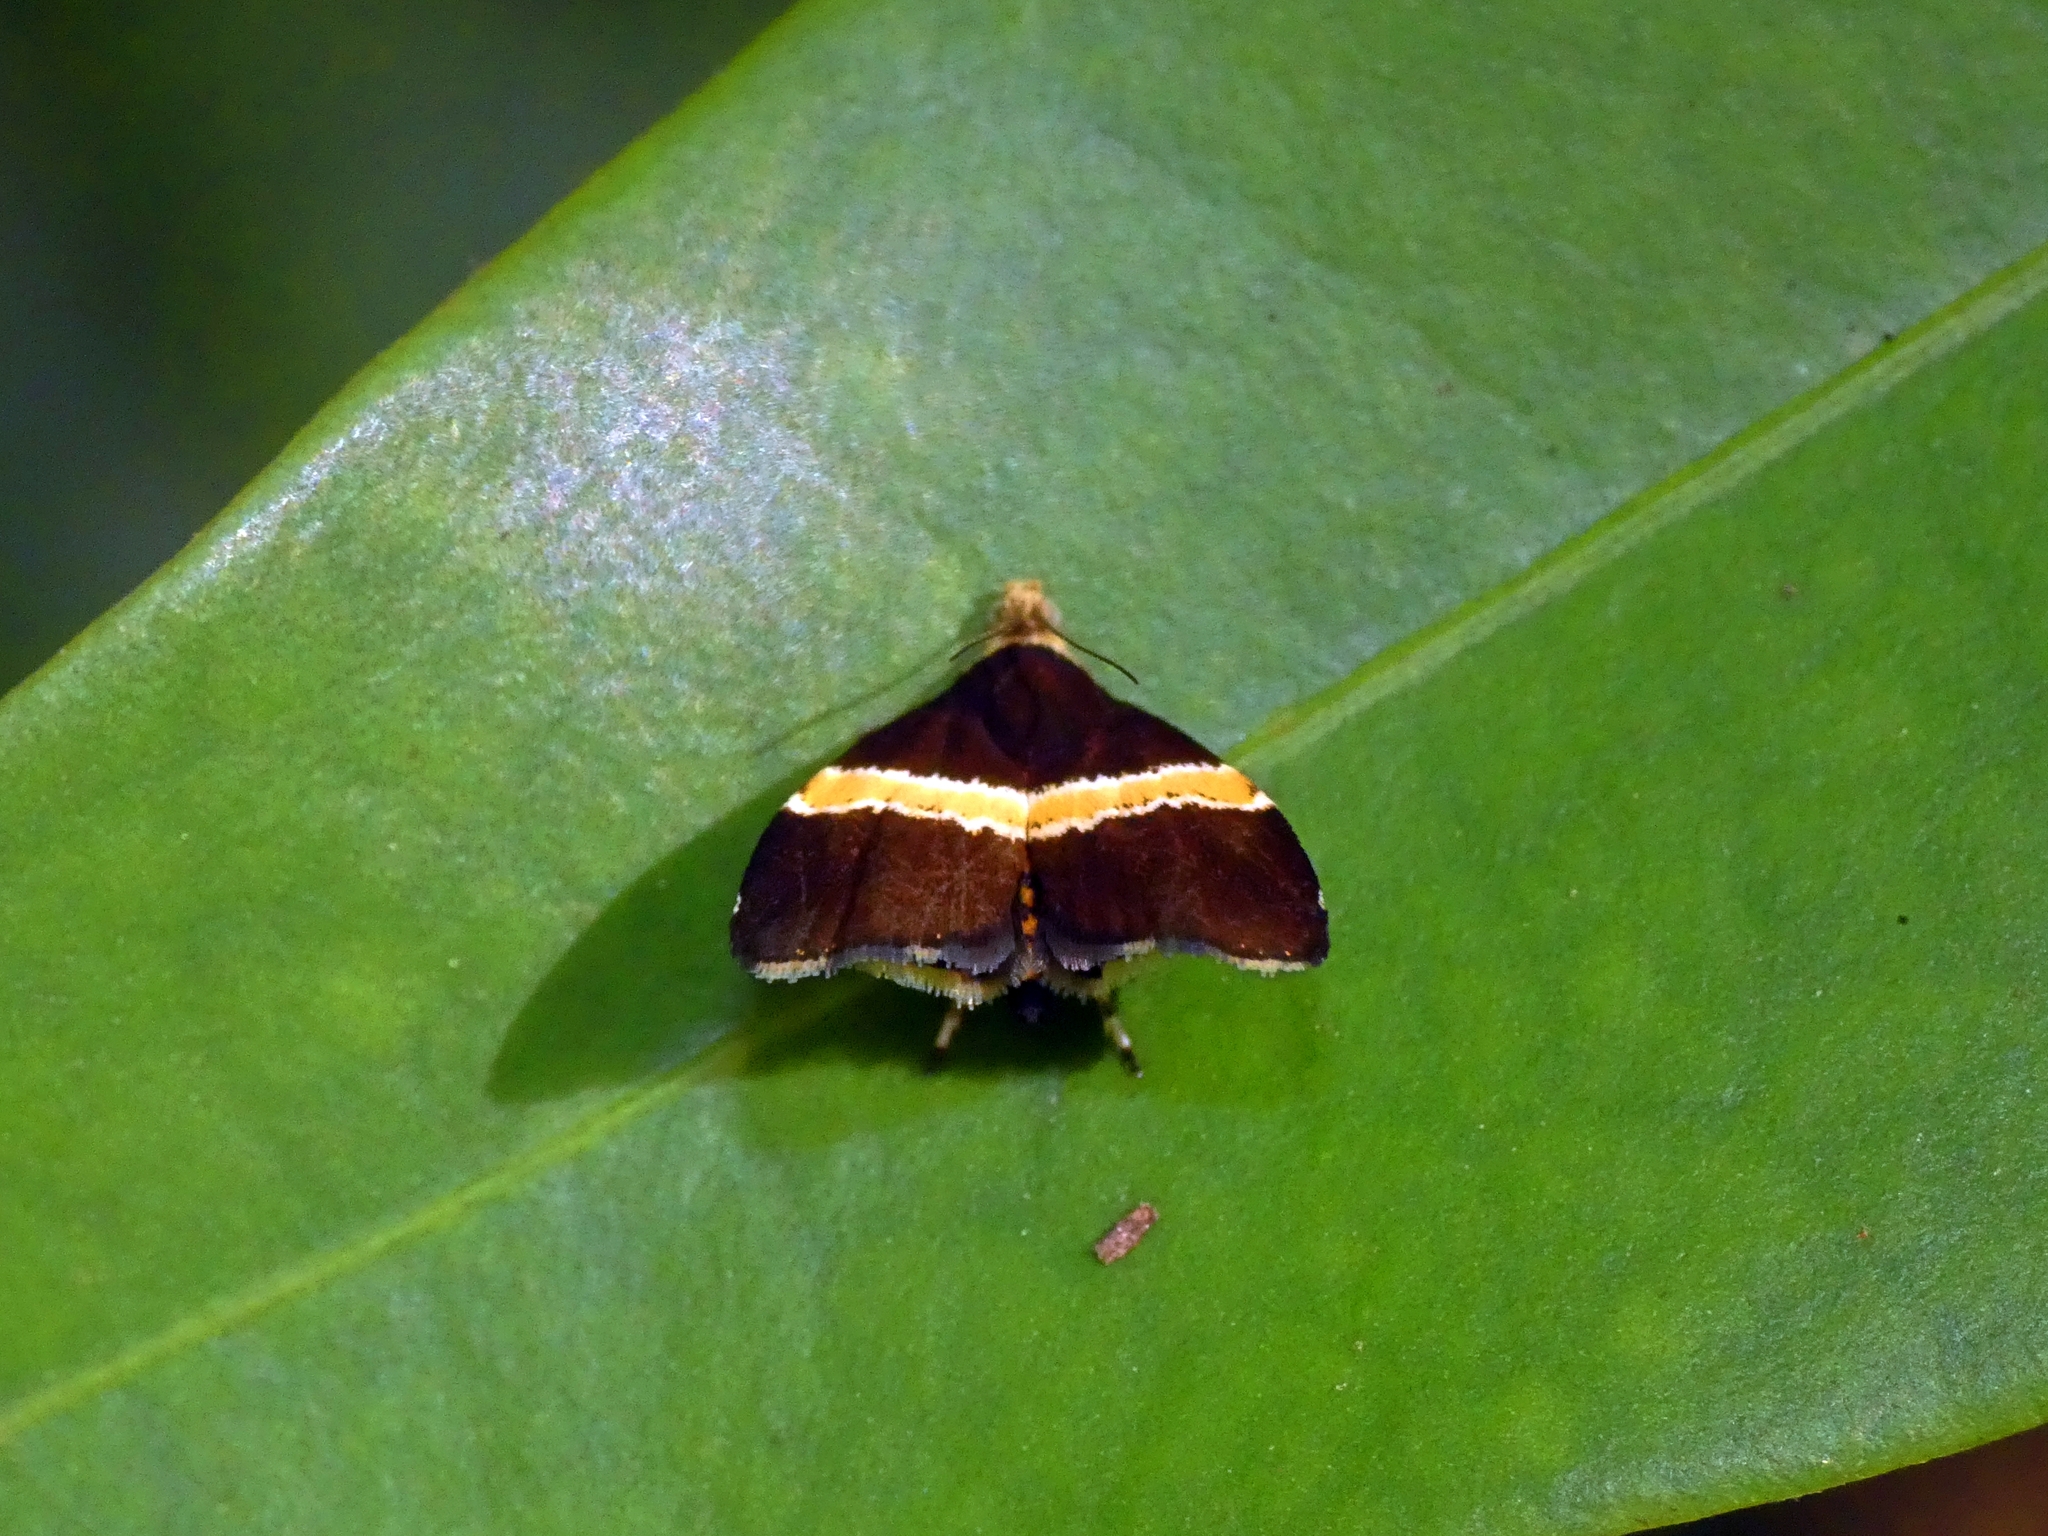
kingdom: Animalia
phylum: Arthropoda
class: Insecta
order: Lepidoptera
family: Choreutidae
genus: Choreutis
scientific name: Choreutis basalis
